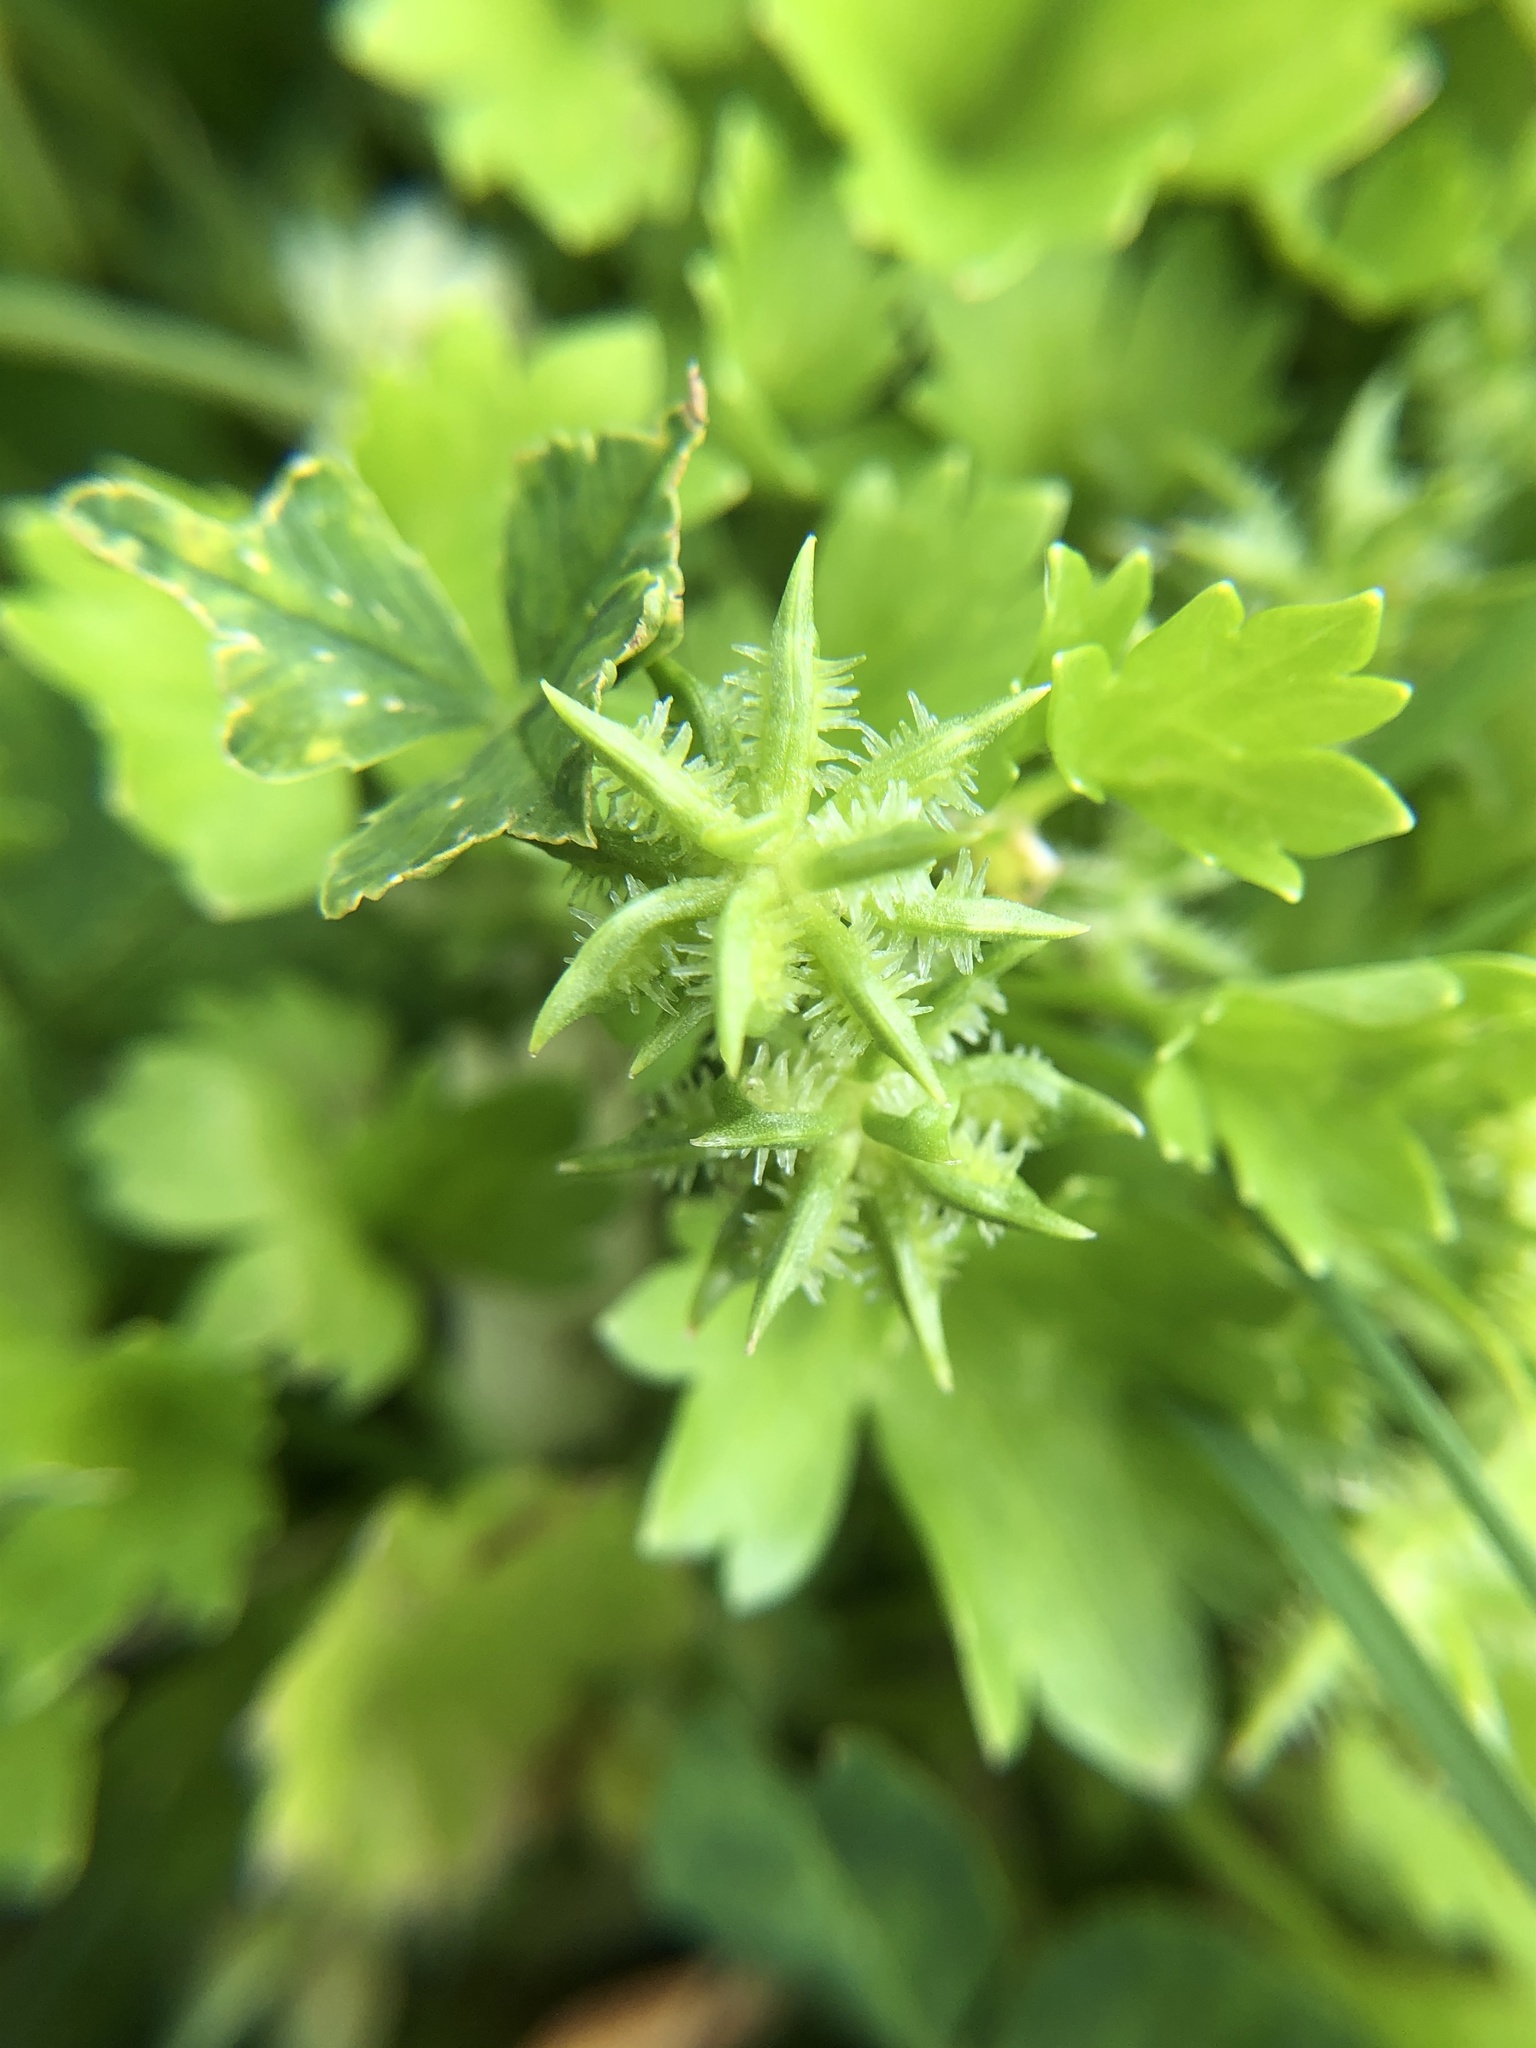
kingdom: Plantae
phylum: Tracheophyta
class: Magnoliopsida
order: Ranunculales
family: Ranunculaceae
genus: Ranunculus
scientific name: Ranunculus muricatus
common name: Rough-fruited buttercup
